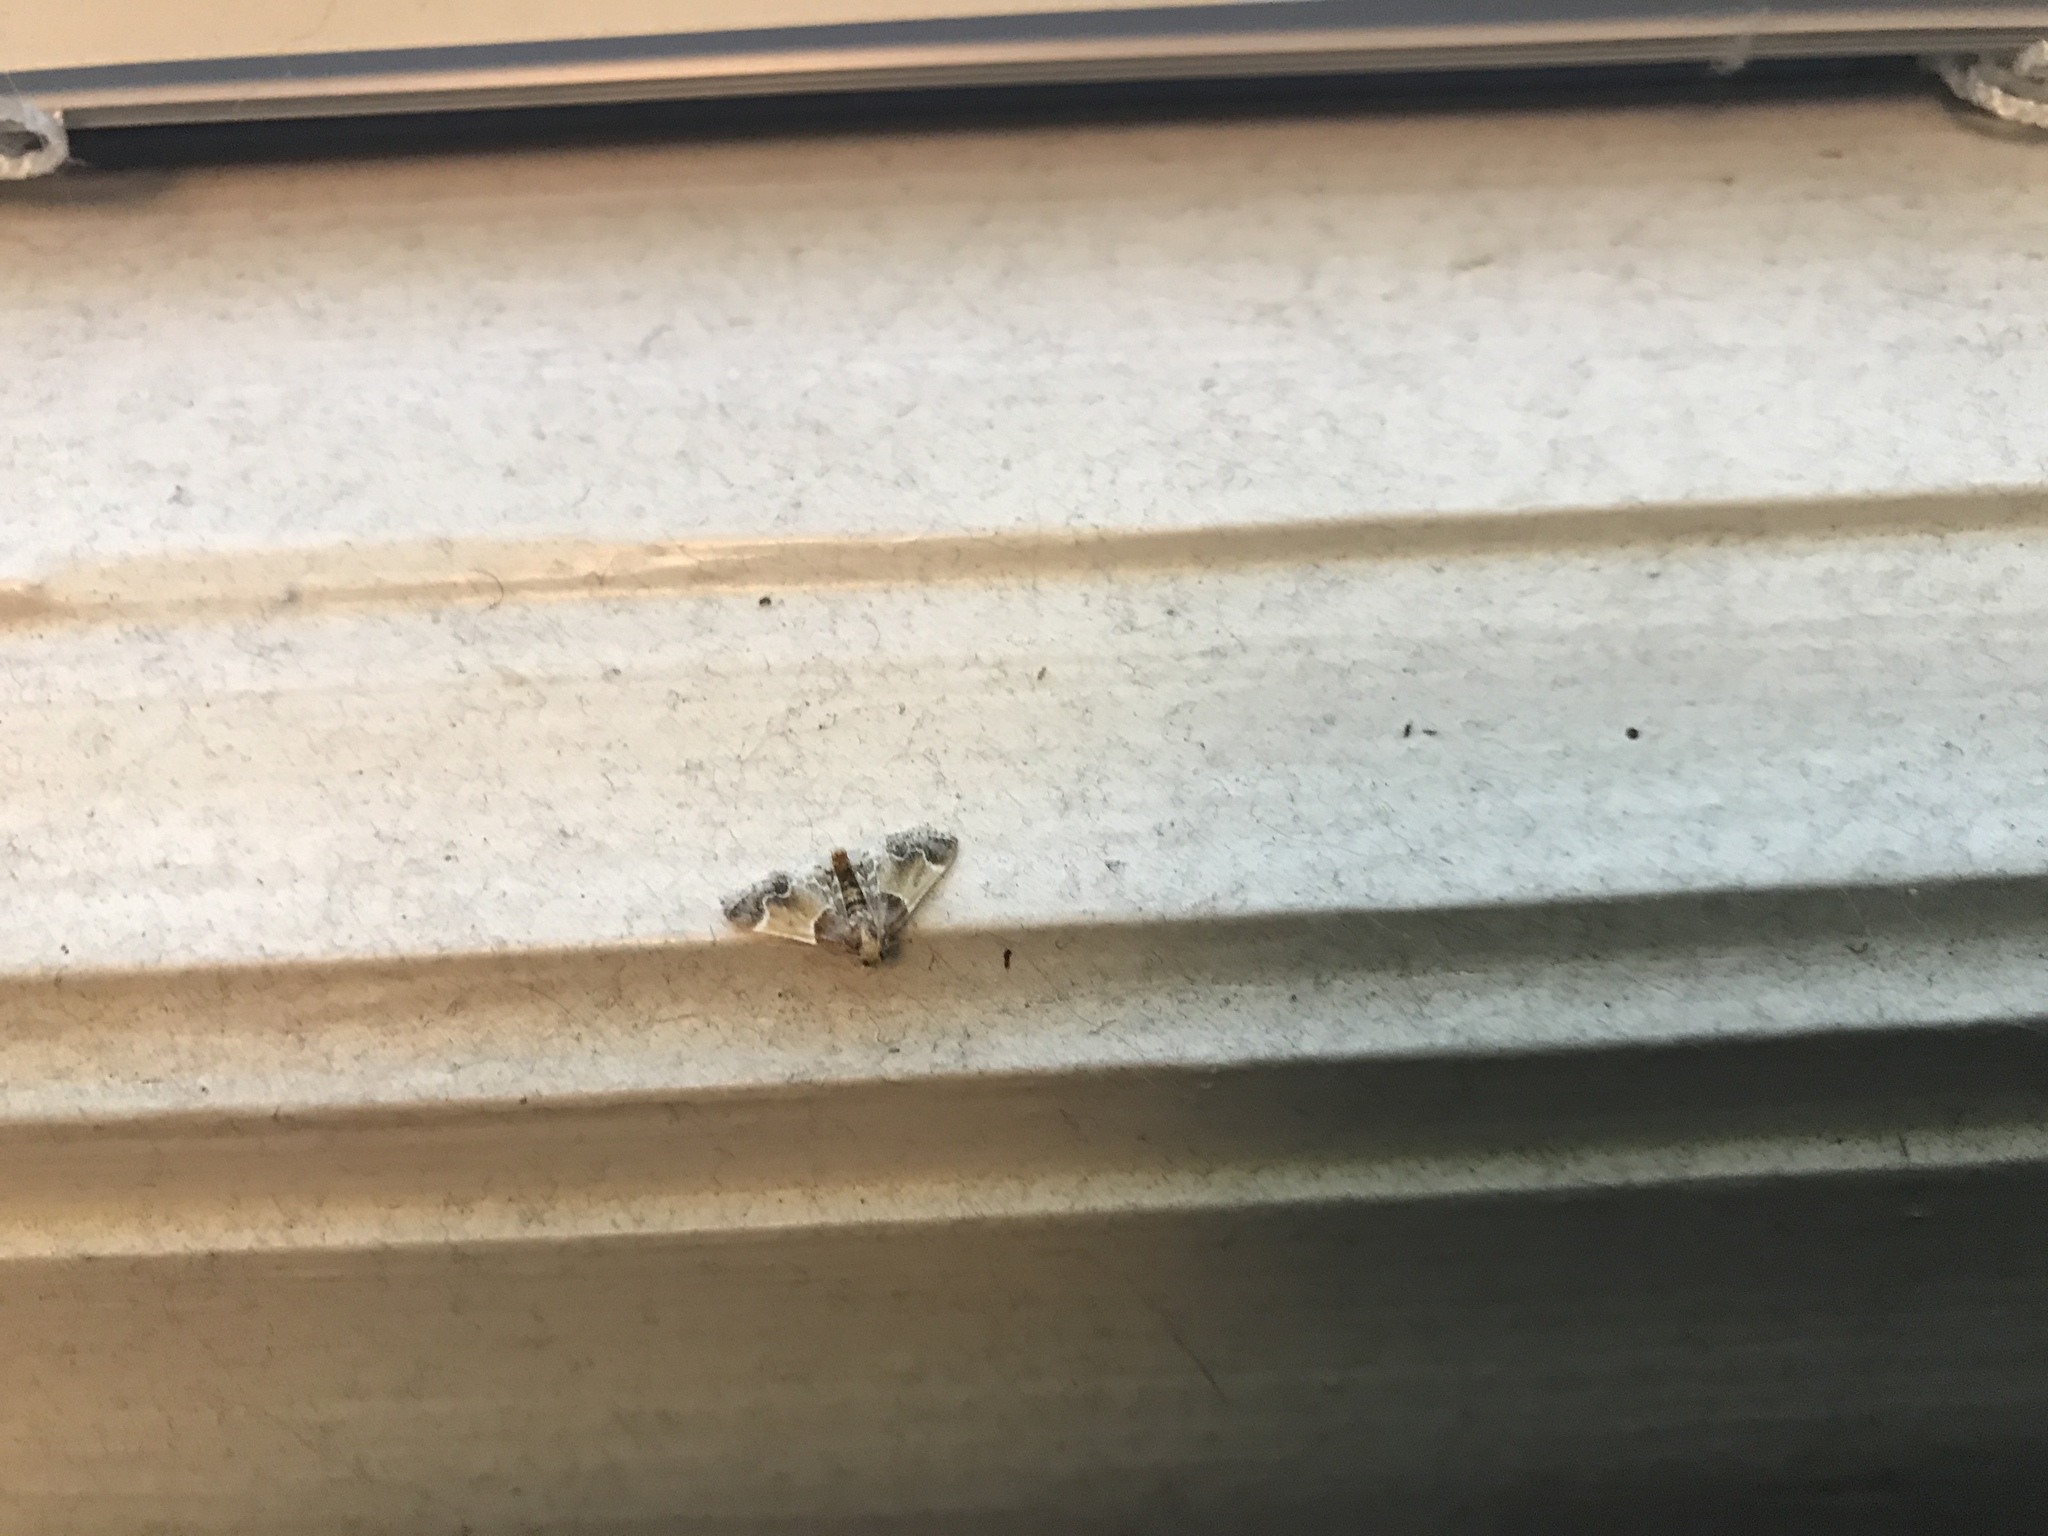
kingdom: Animalia
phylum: Arthropoda
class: Insecta
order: Lepidoptera
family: Pyralidae
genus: Pyralis
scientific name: Pyralis farinalis
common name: Meal moth
